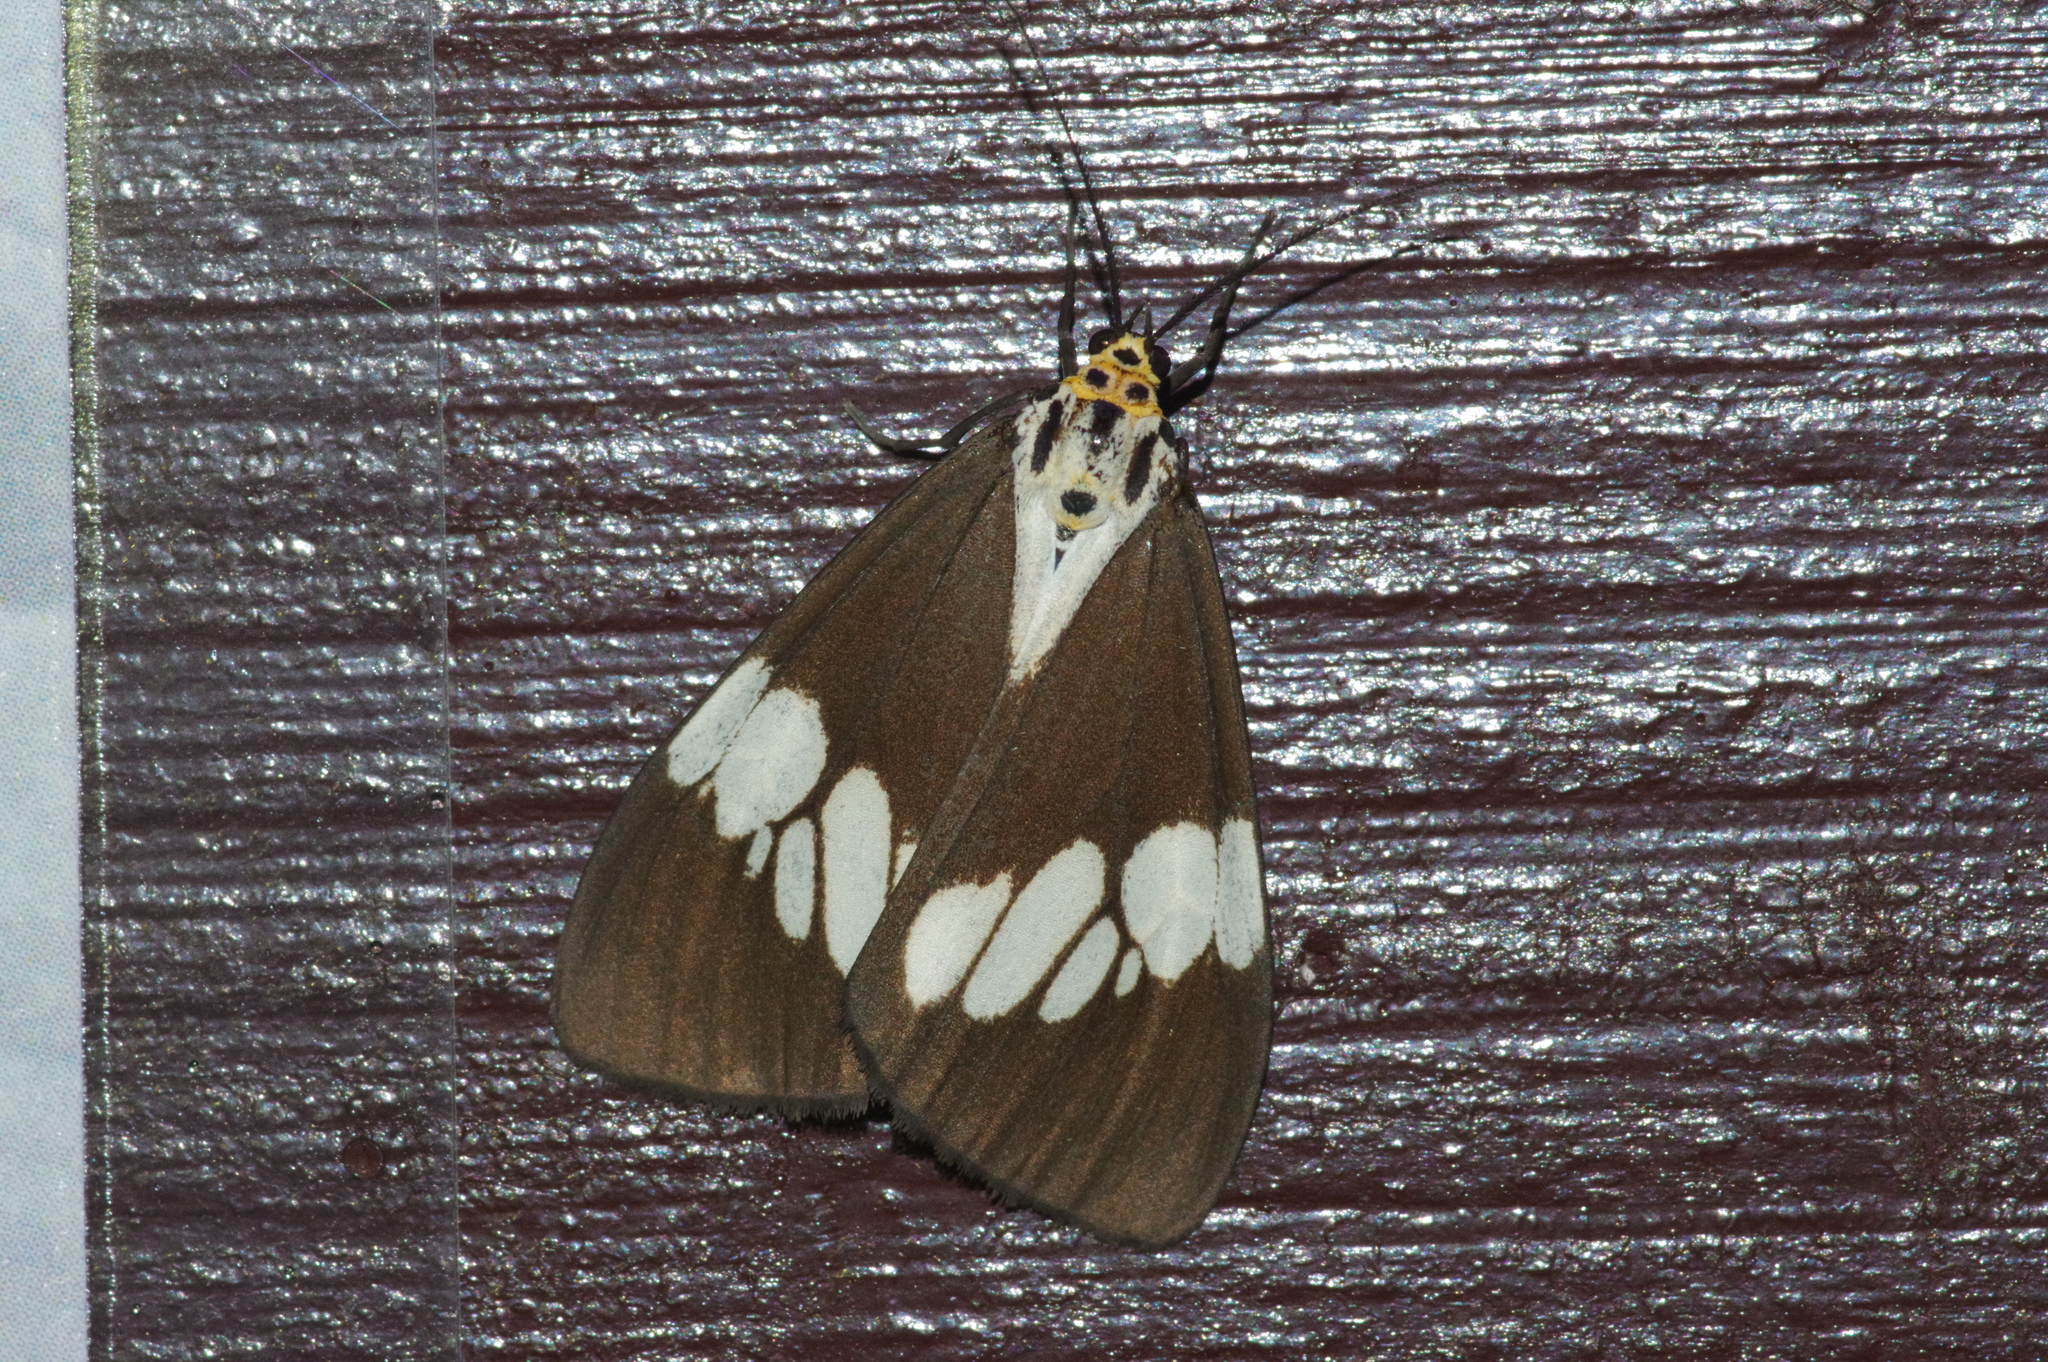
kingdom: Animalia
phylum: Arthropoda
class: Insecta
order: Lepidoptera
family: Erebidae
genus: Nyctemera
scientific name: Nyctemera lacticinia
